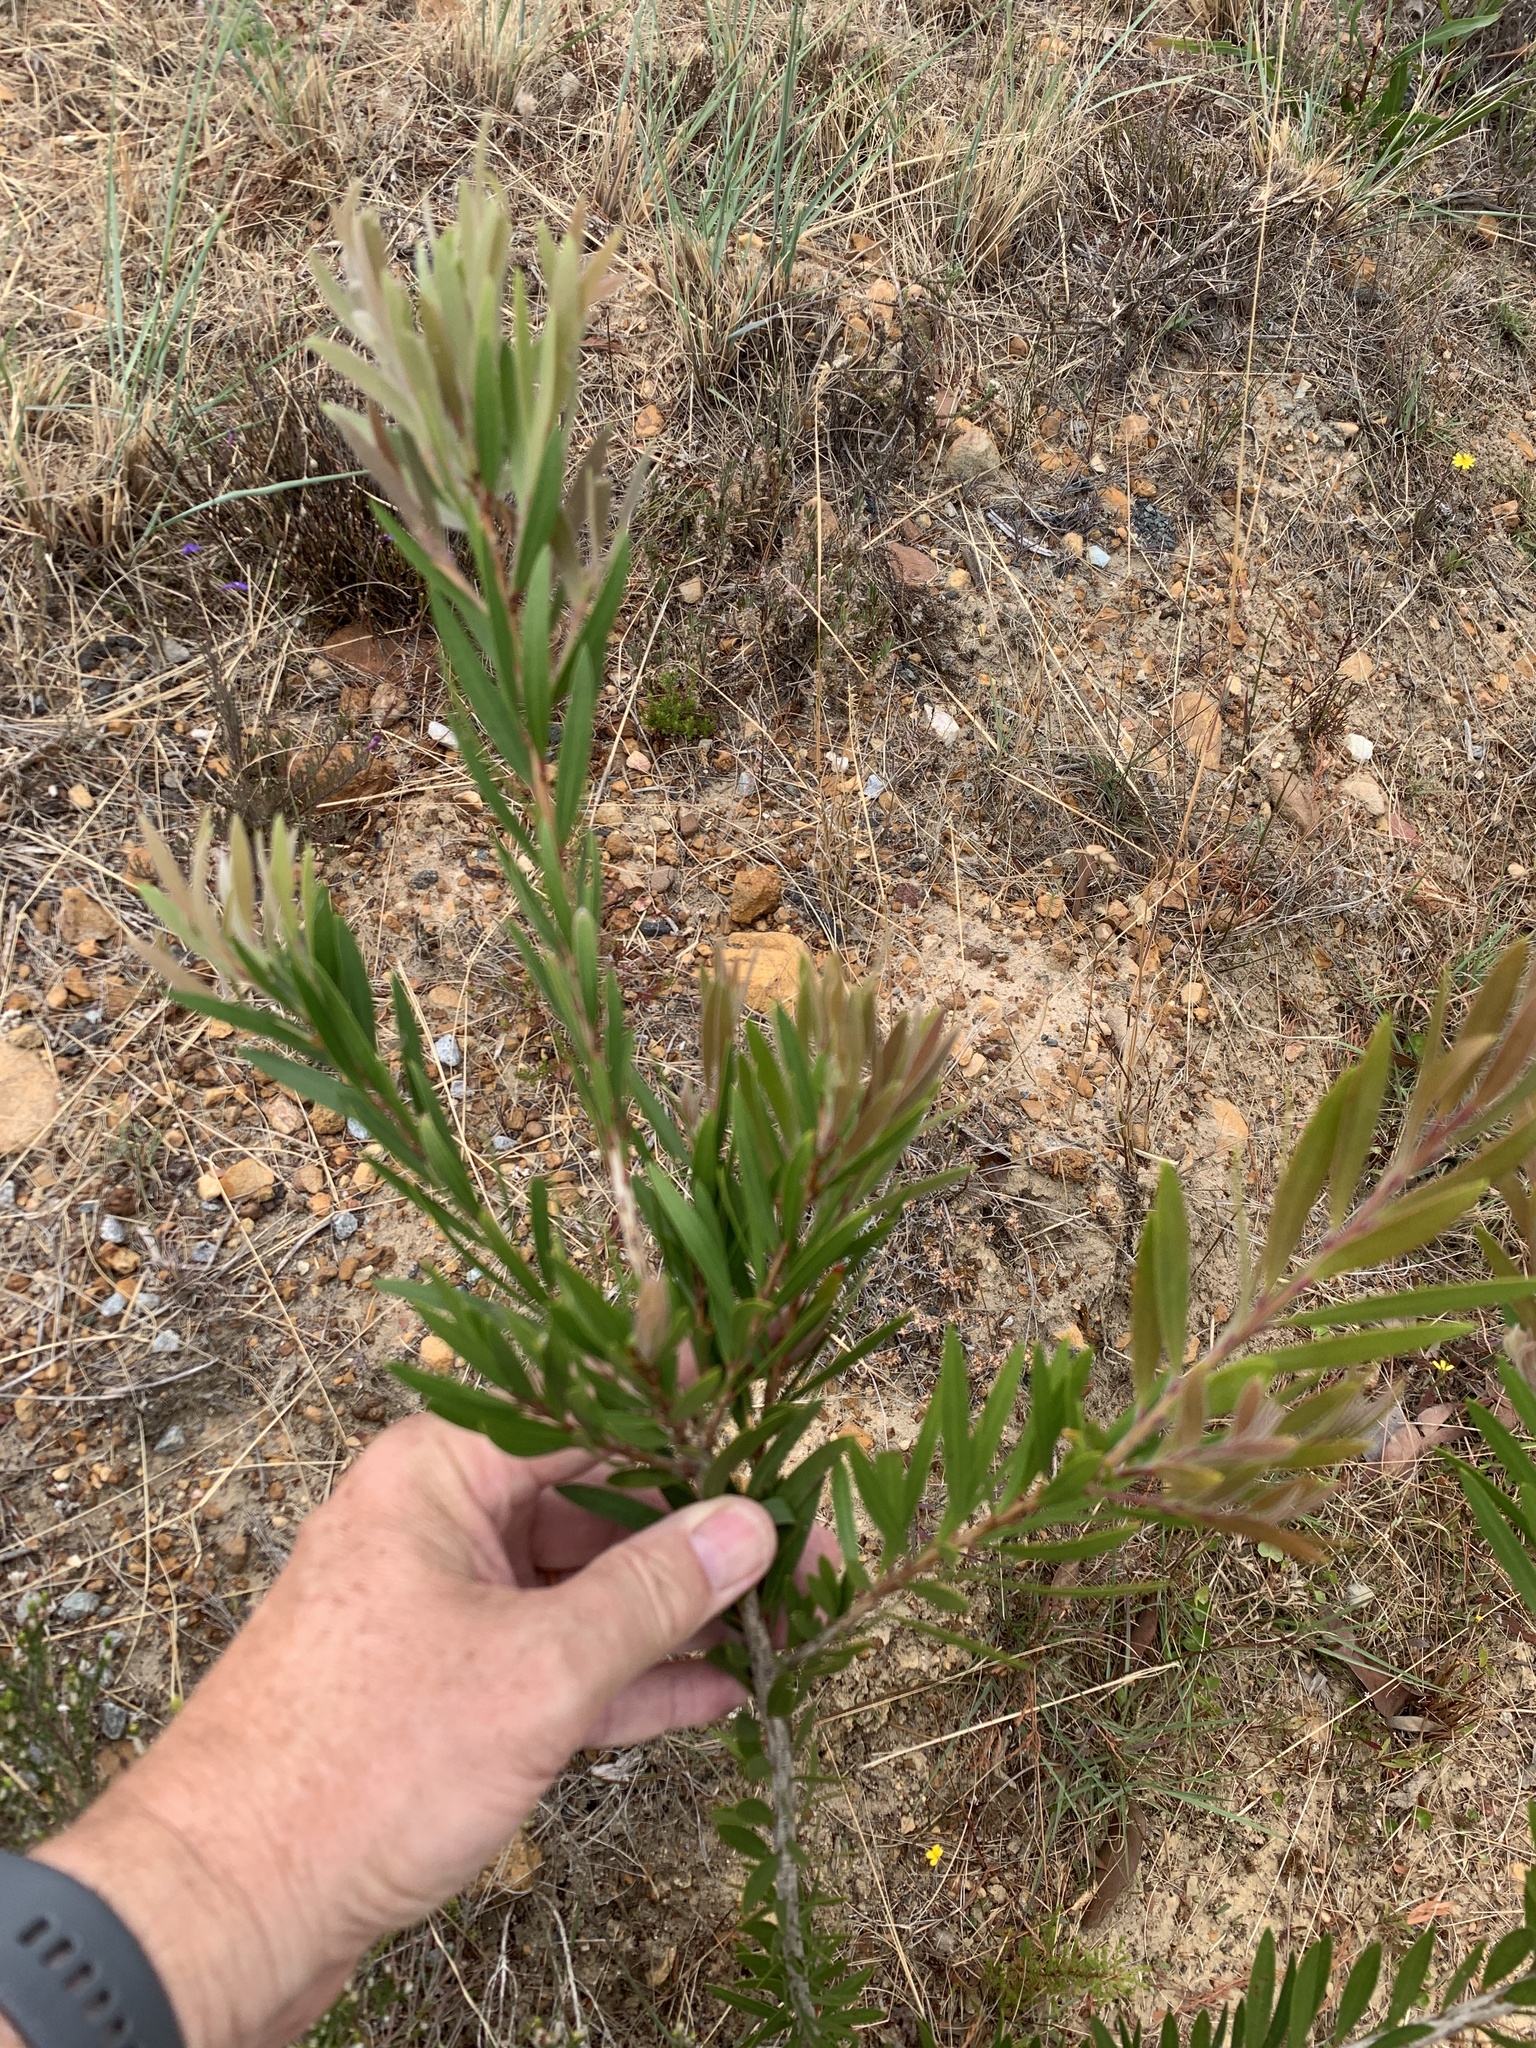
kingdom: Plantae
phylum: Tracheophyta
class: Magnoliopsida
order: Myrtales
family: Myrtaceae
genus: Callistemon
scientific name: Callistemon viminalis
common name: Drooping bottlebrush
